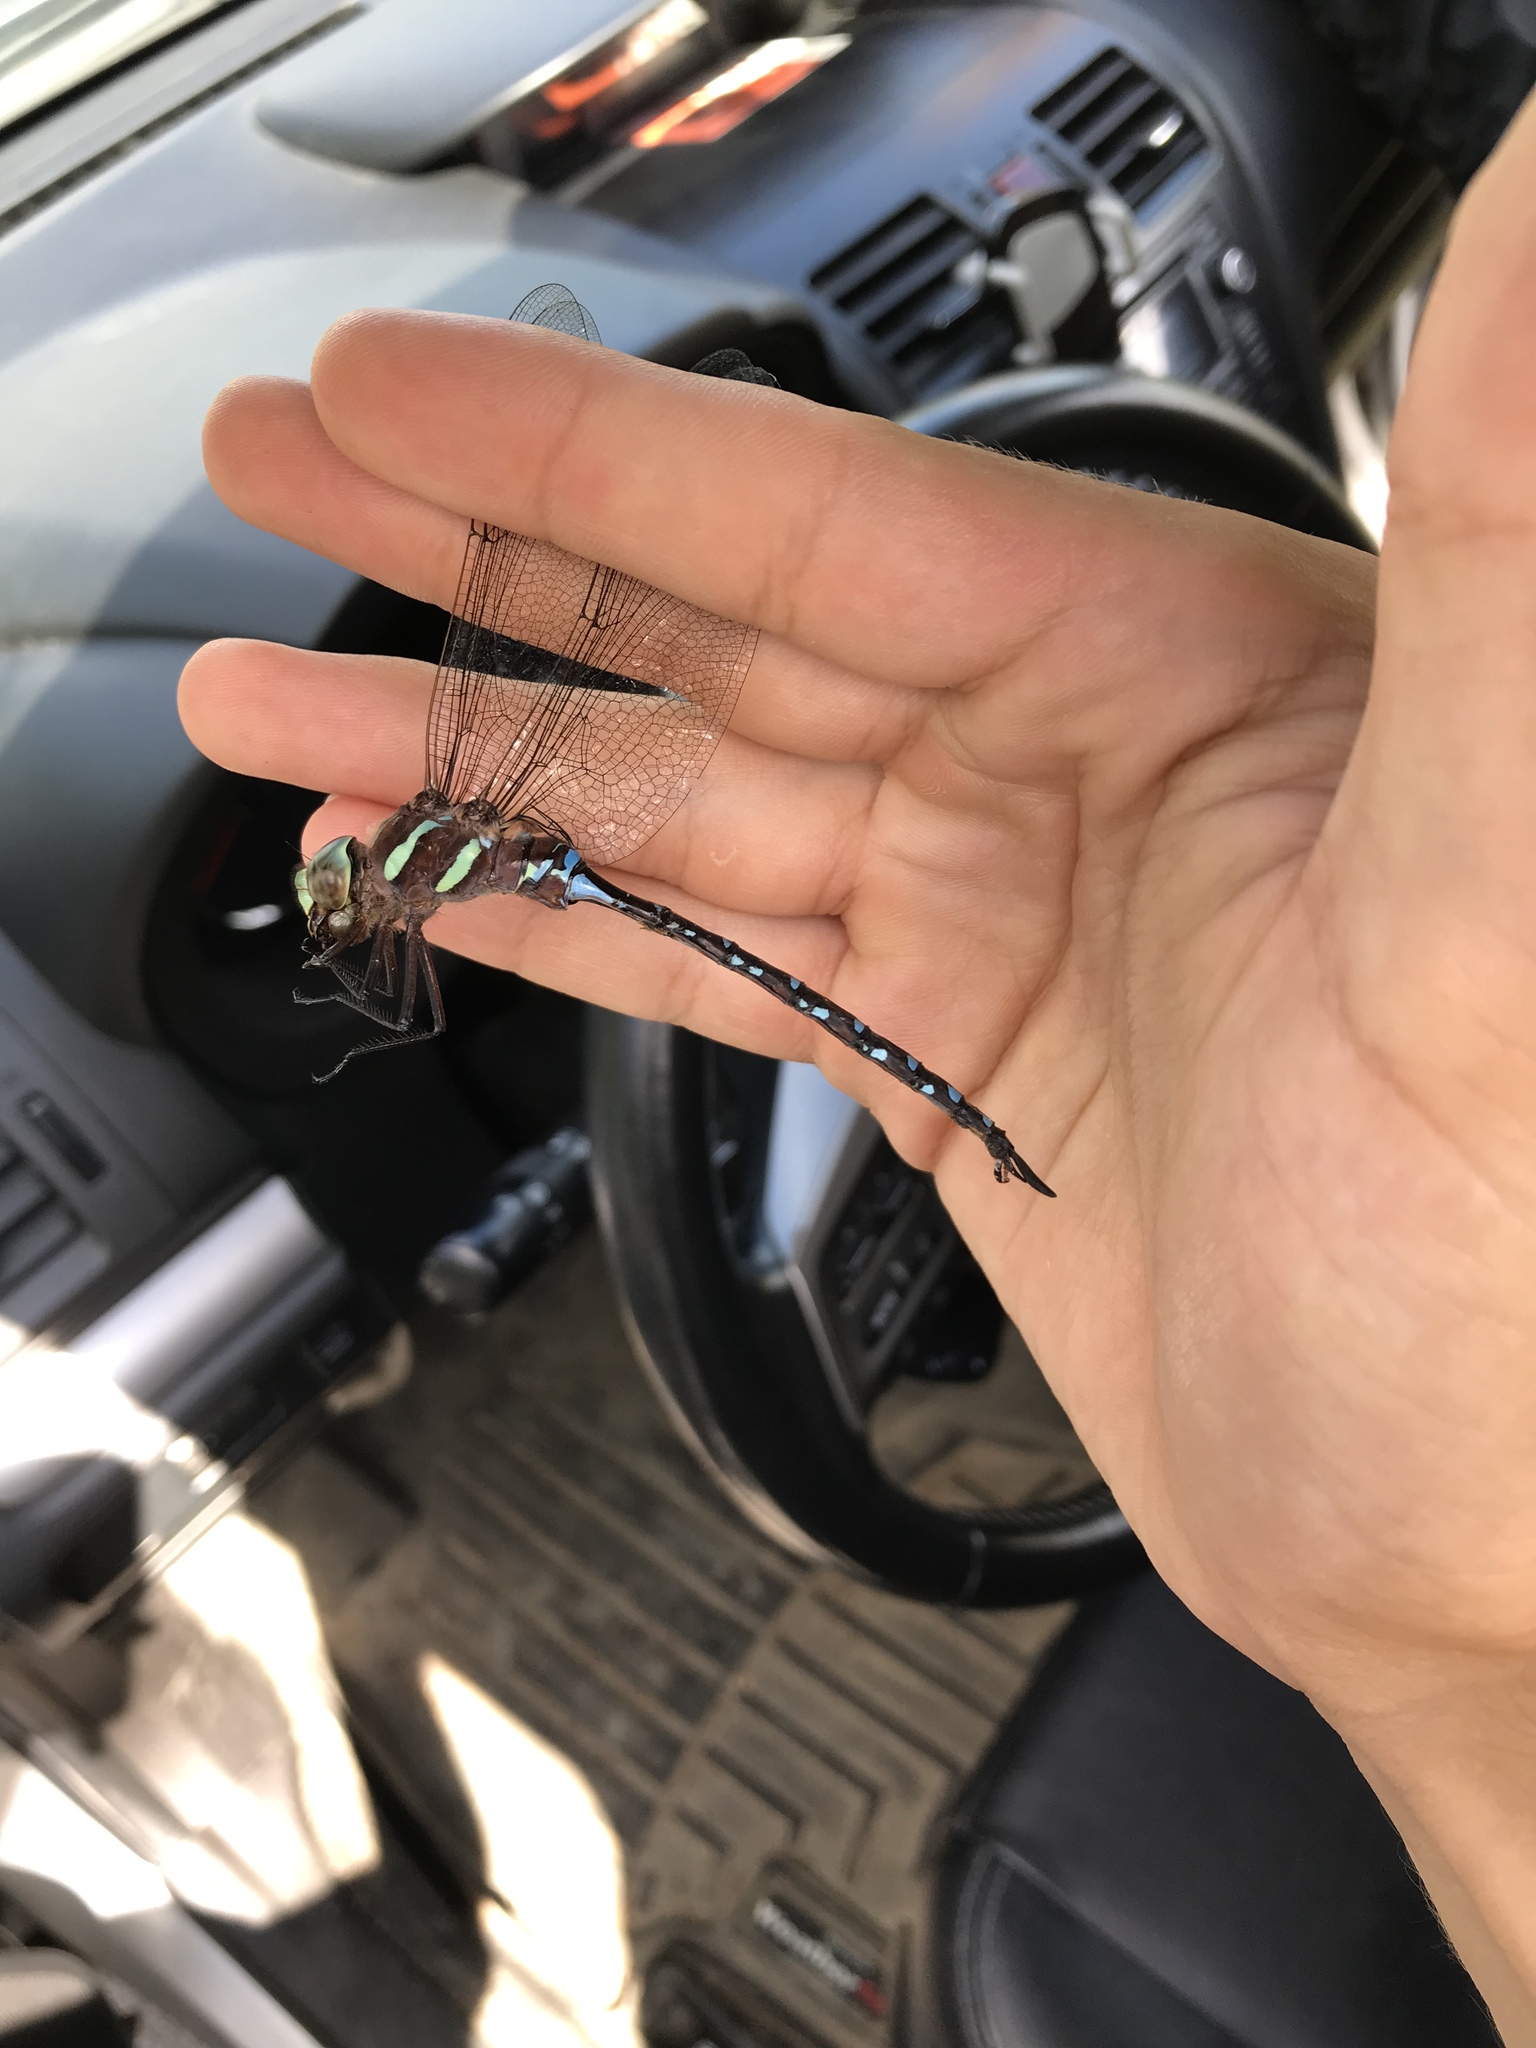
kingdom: Animalia
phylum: Arthropoda
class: Insecta
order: Odonata
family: Aeshnidae
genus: Aeshna
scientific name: Aeshna tuberculifera
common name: Aeschne à tubercules
